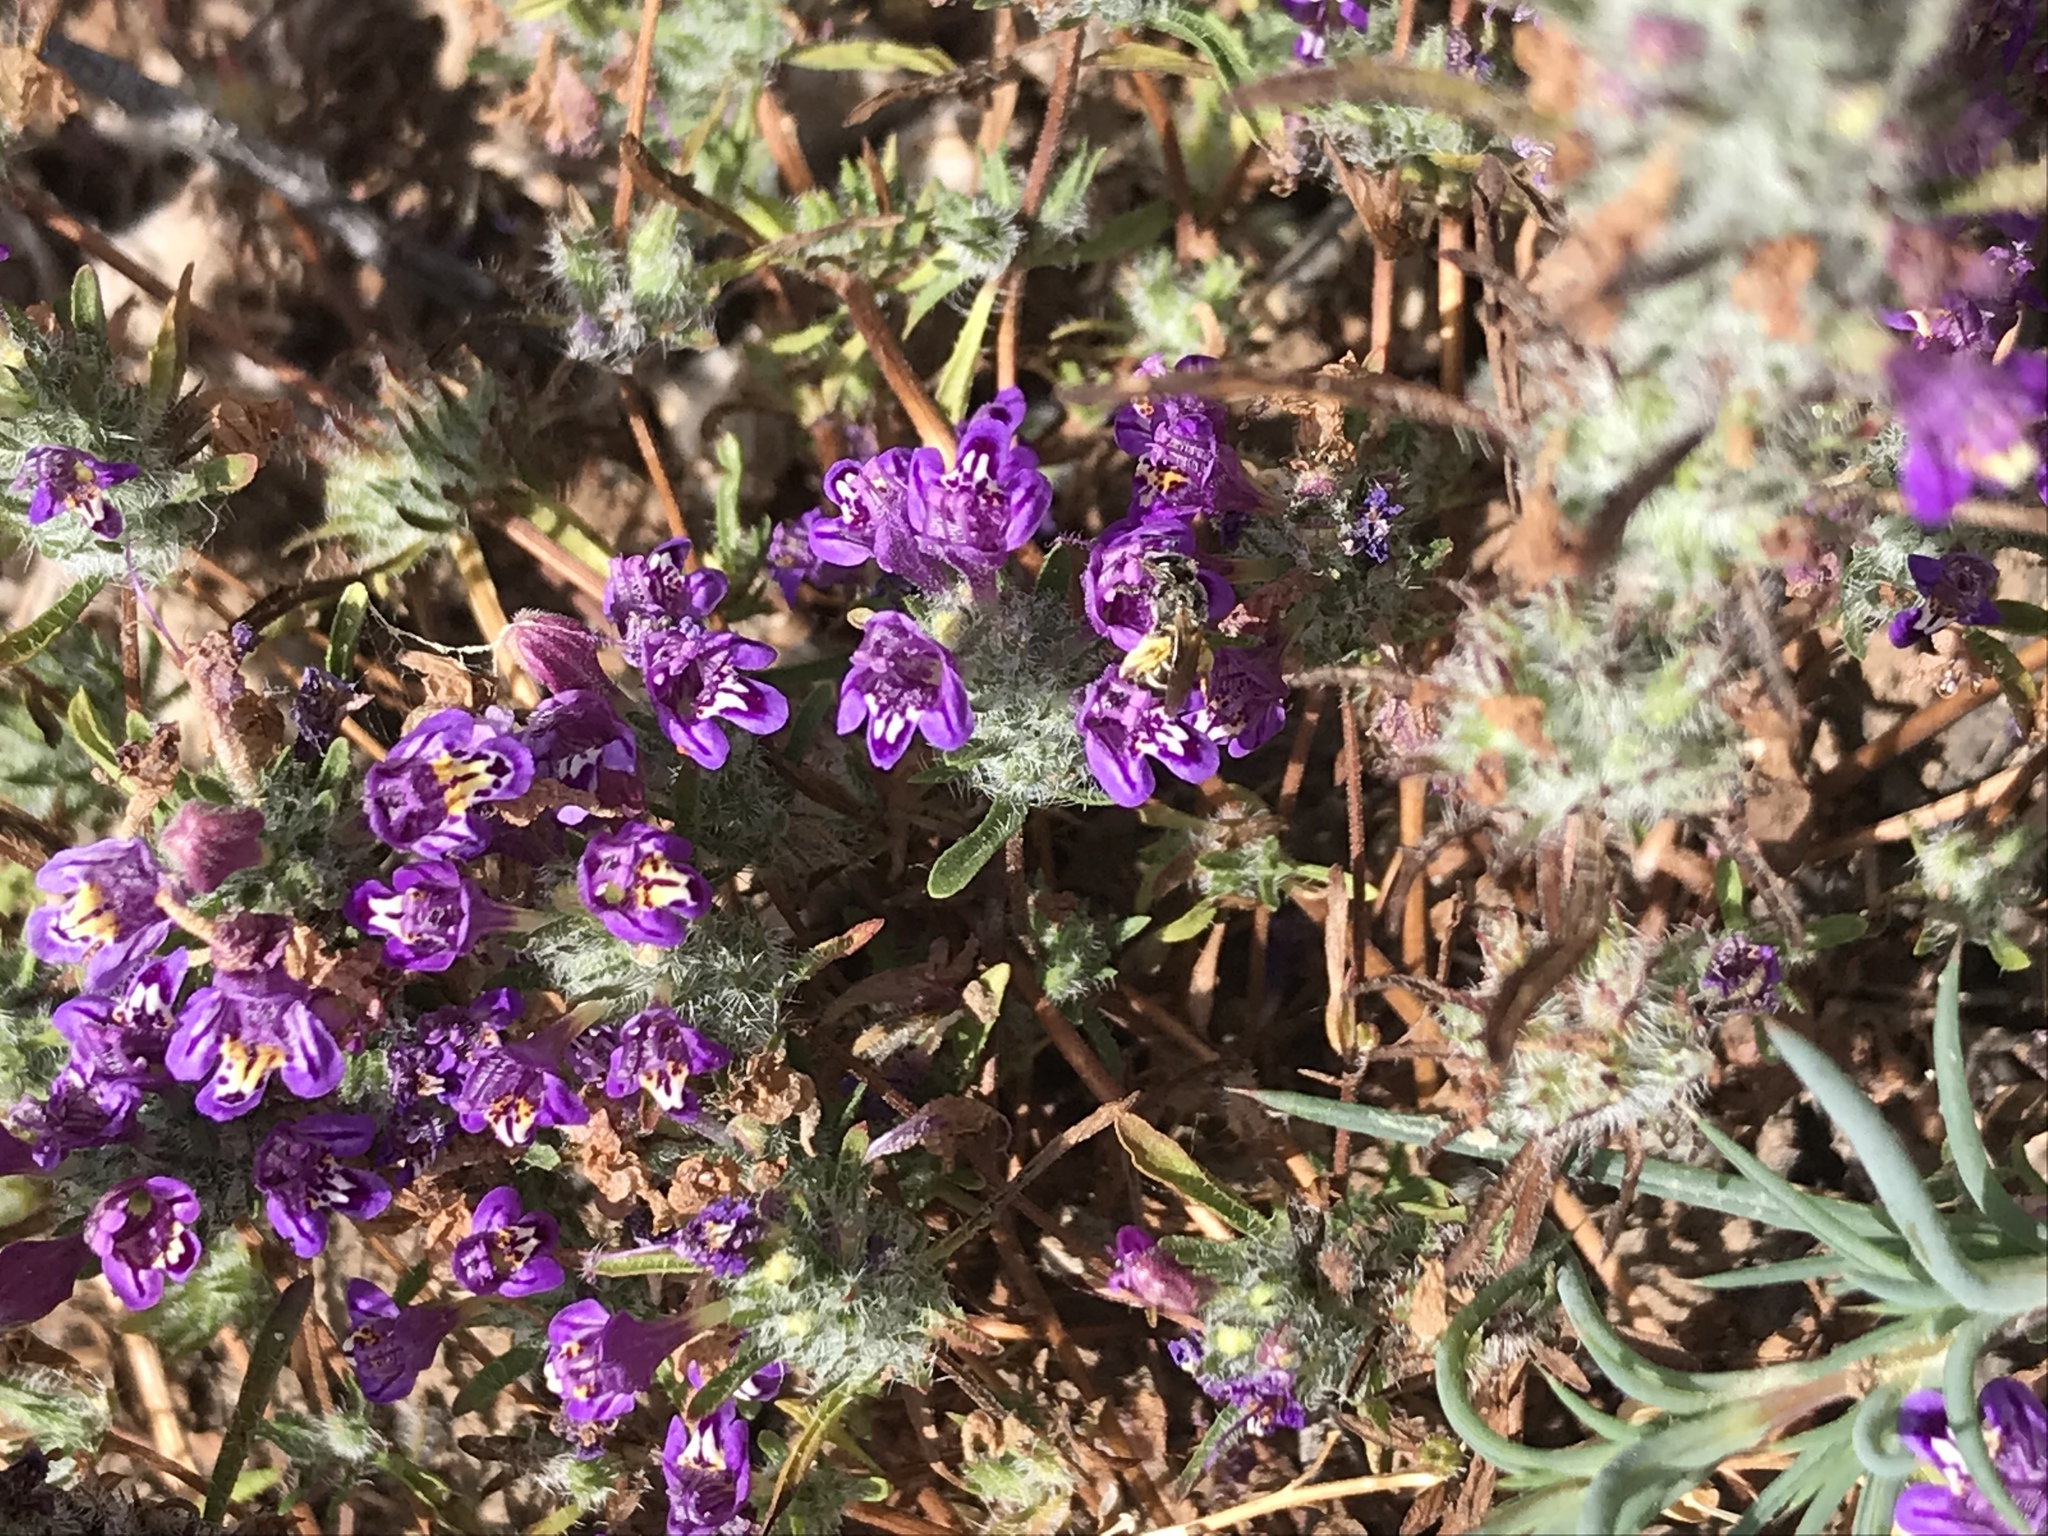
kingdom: Animalia
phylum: Arthropoda
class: Insecta
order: Hymenoptera
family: Halictidae
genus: Halictus
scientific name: Halictus tripartitus
